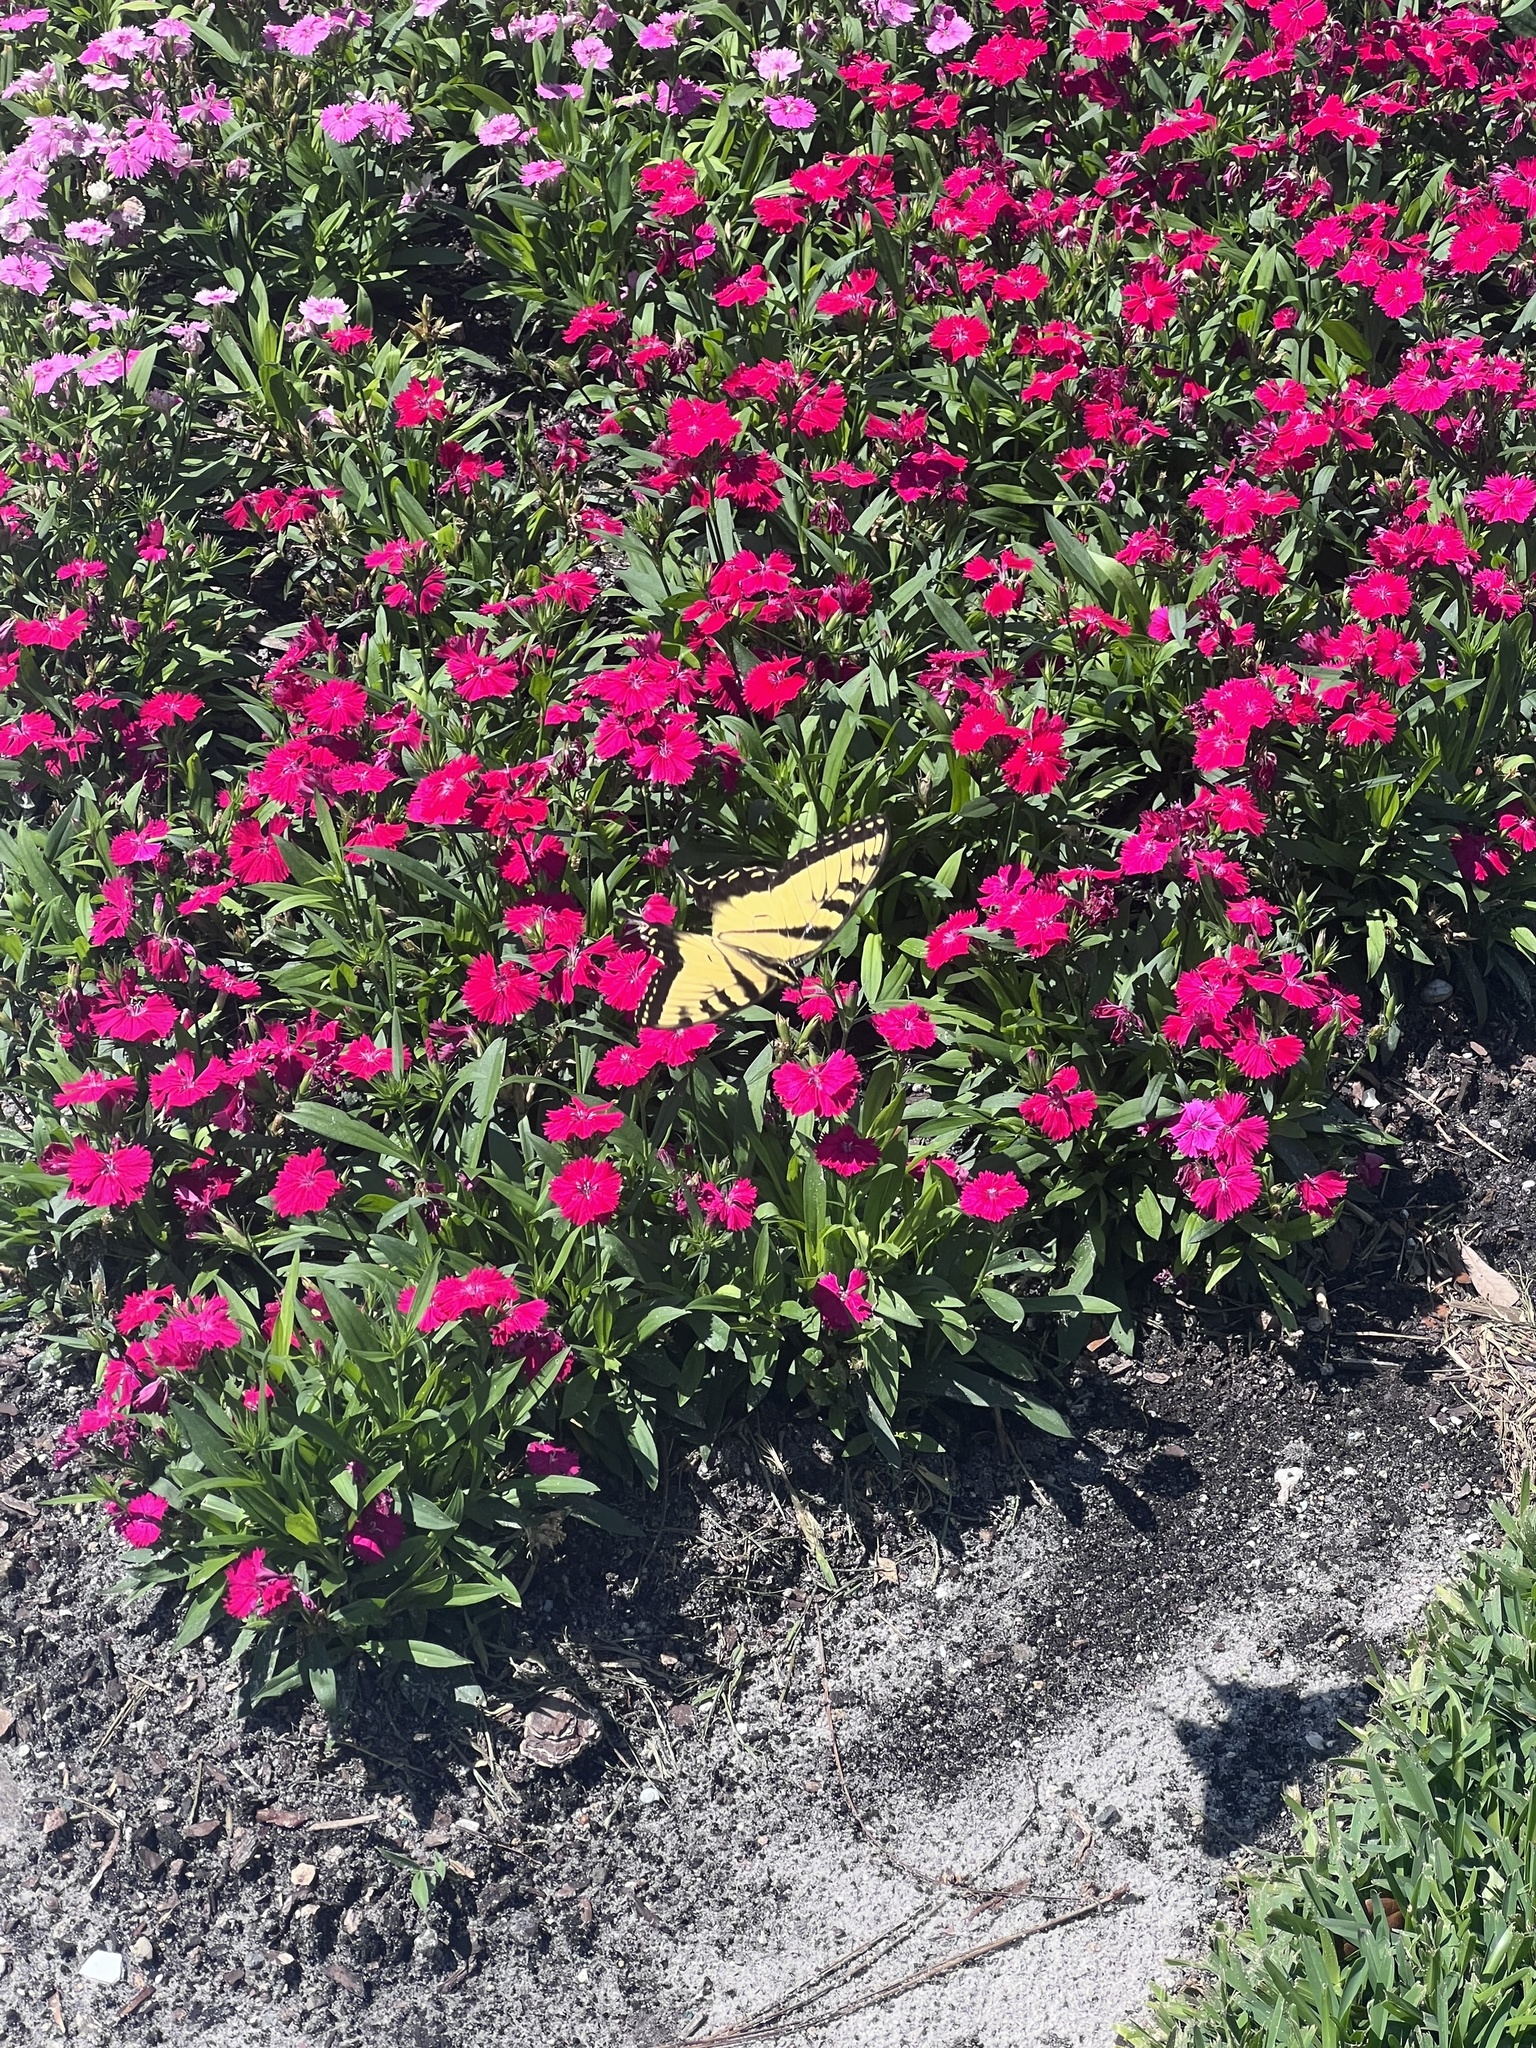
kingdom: Animalia
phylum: Arthropoda
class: Insecta
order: Lepidoptera
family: Papilionidae
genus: Papilio
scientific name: Papilio glaucus
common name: Tiger swallowtail
